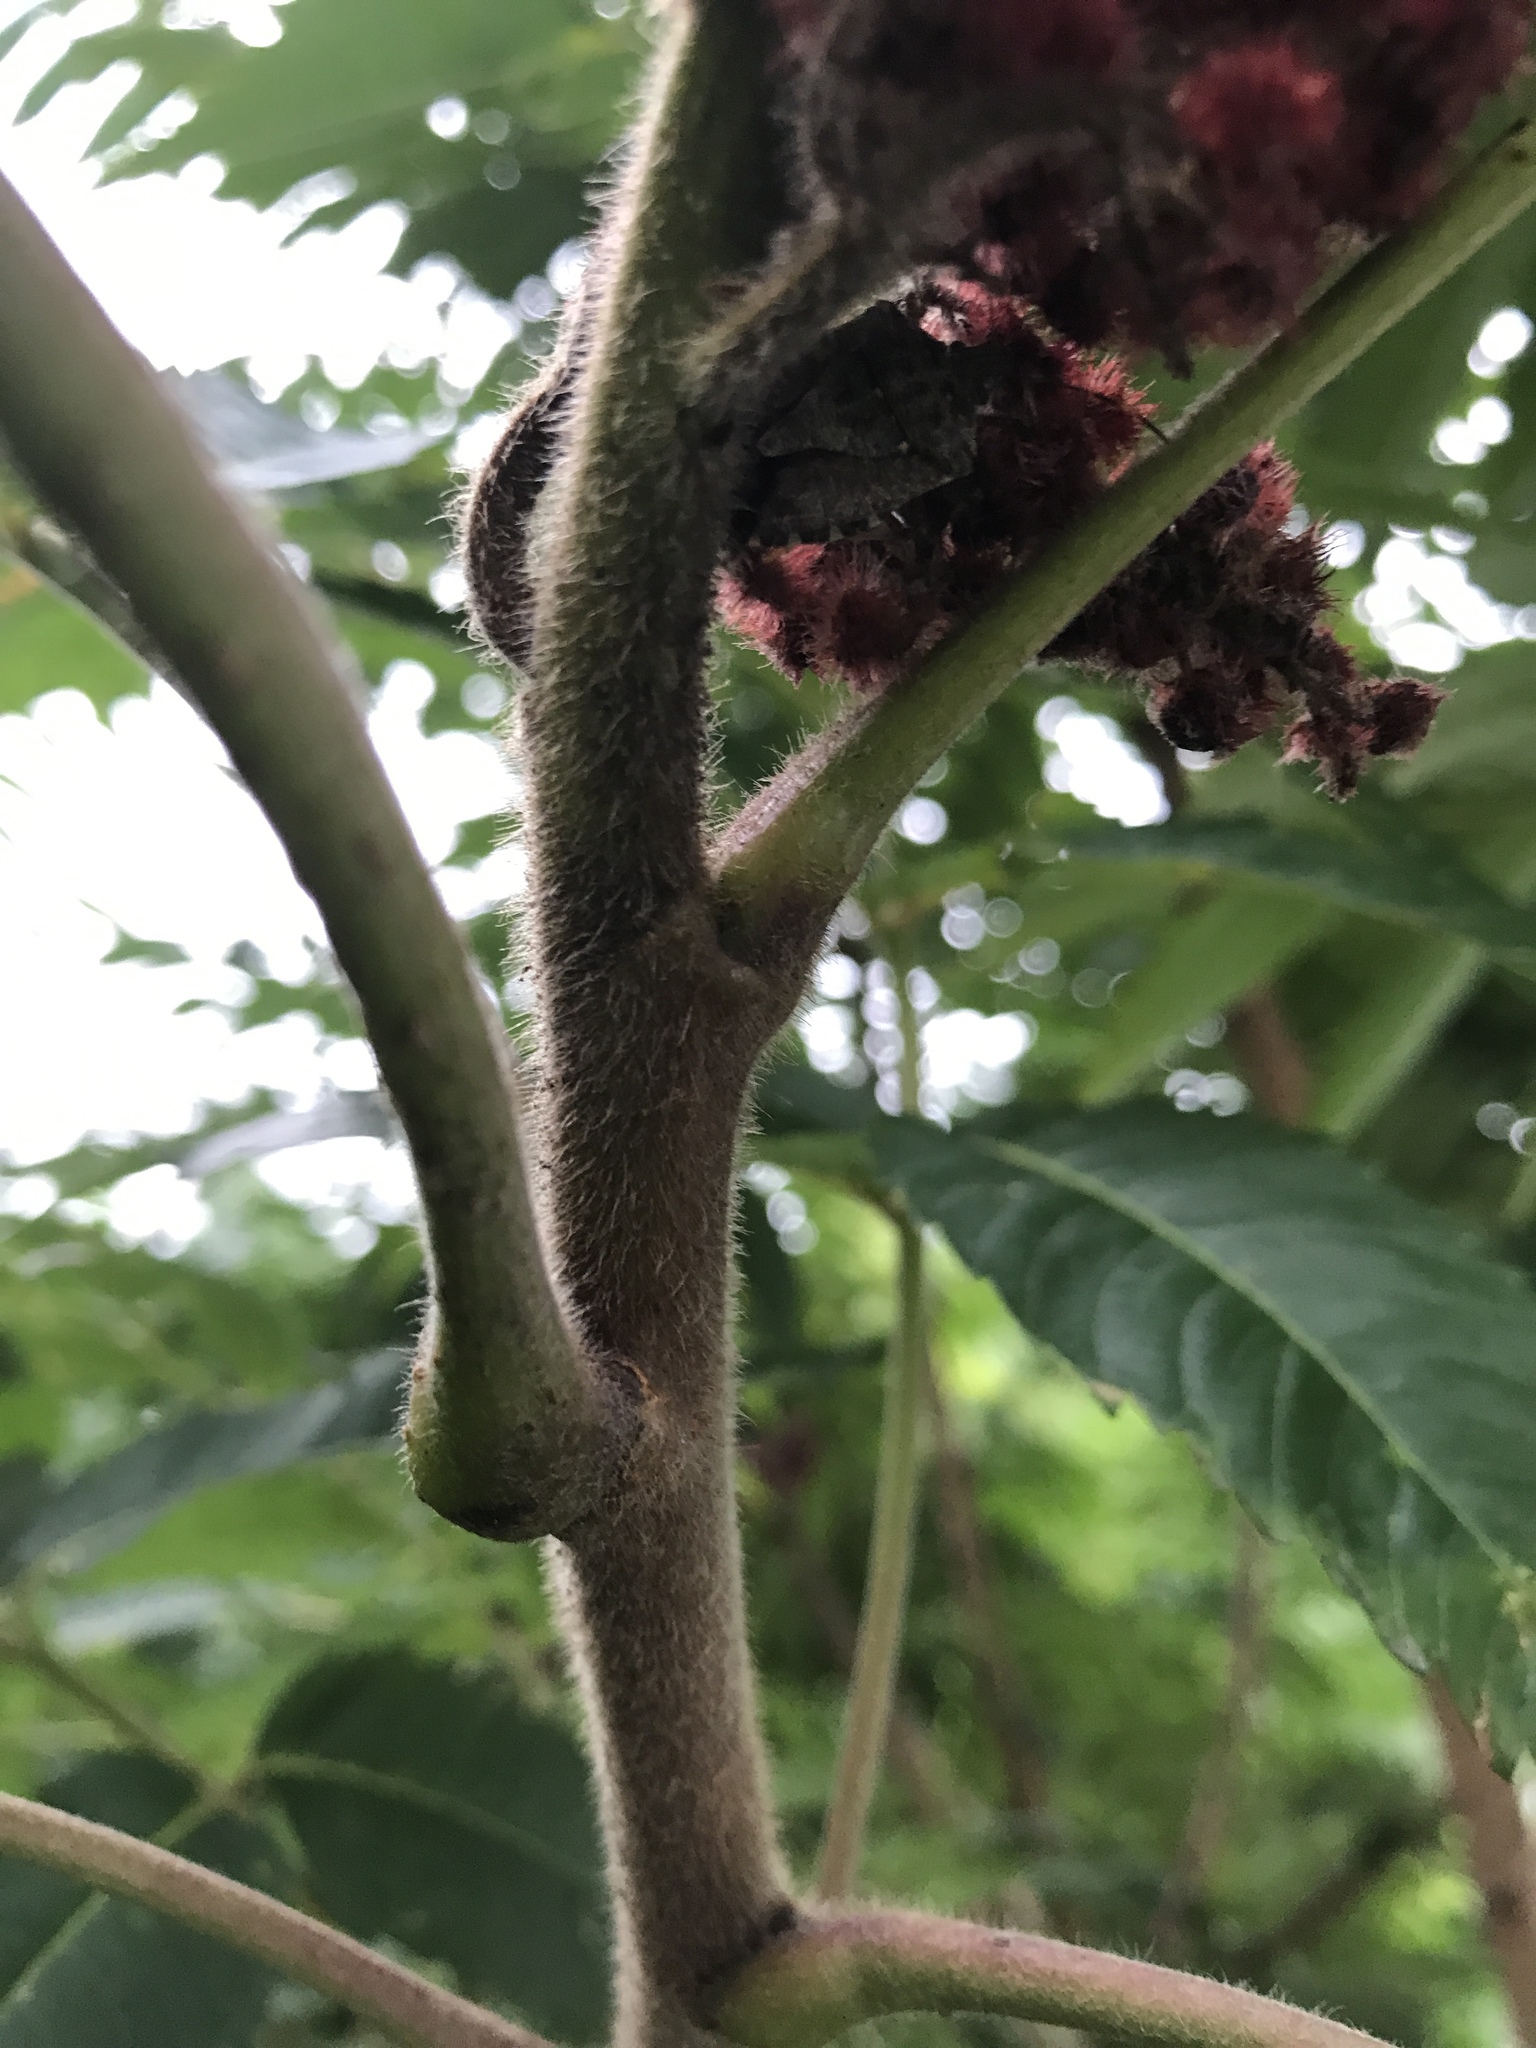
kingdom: Plantae
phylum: Tracheophyta
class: Magnoliopsida
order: Sapindales
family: Anacardiaceae
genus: Rhus
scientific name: Rhus typhina
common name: Staghorn sumac
